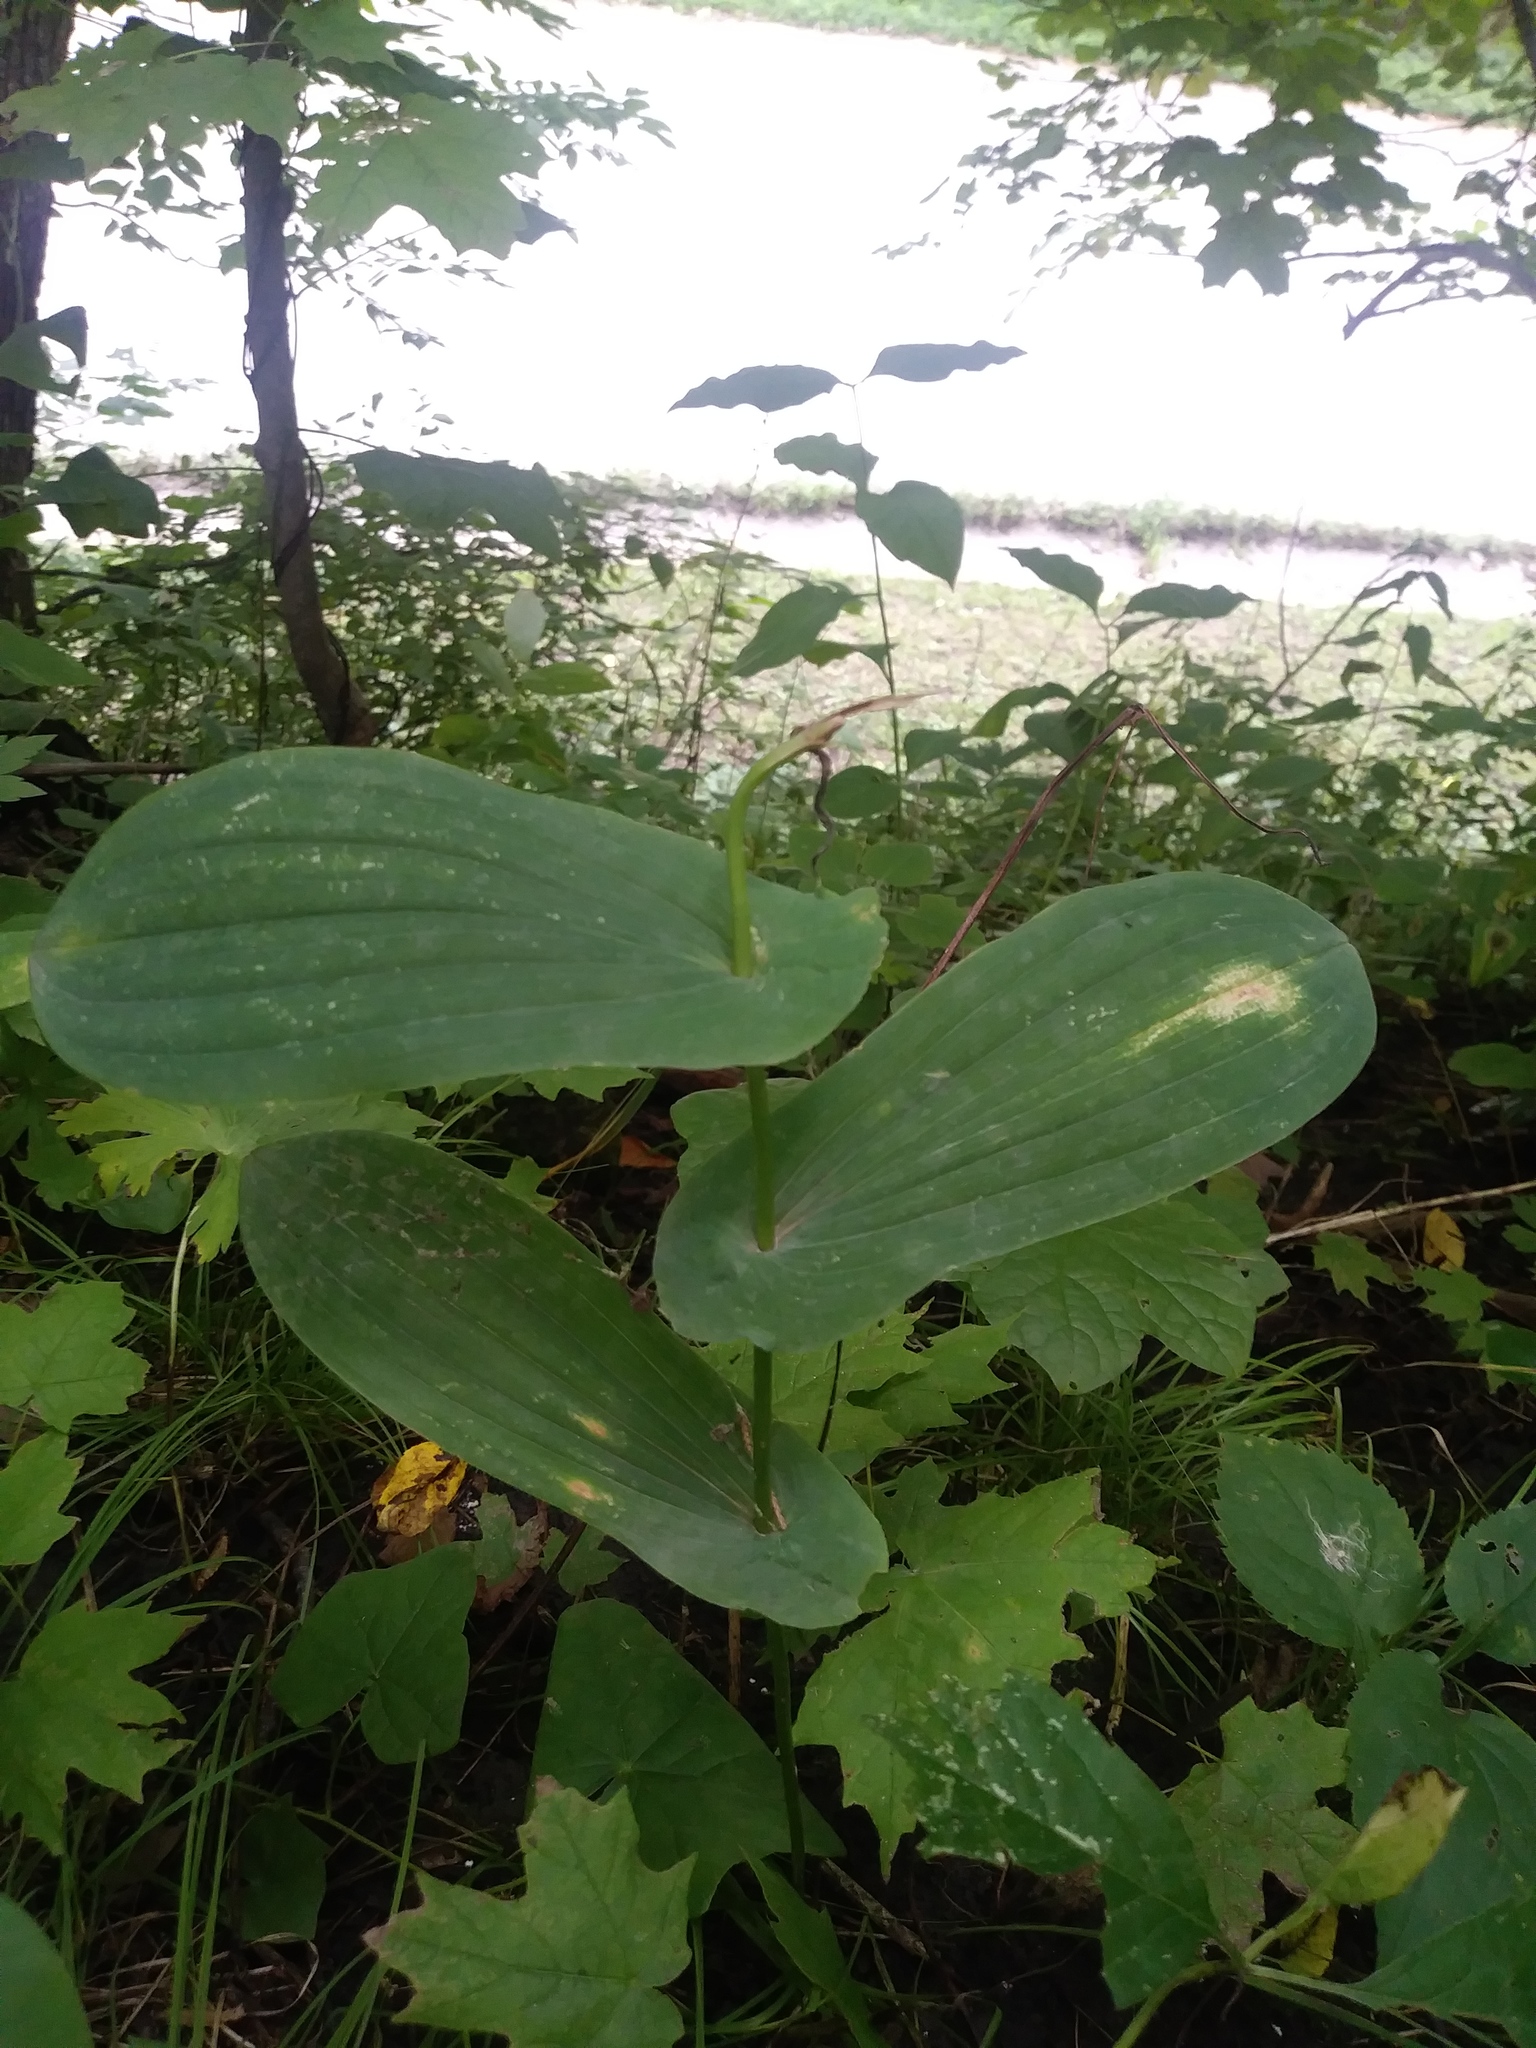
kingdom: Plantae
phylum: Tracheophyta
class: Liliopsida
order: Liliales
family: Colchicaceae
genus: Uvularia
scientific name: Uvularia grandiflora
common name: Bellwort
